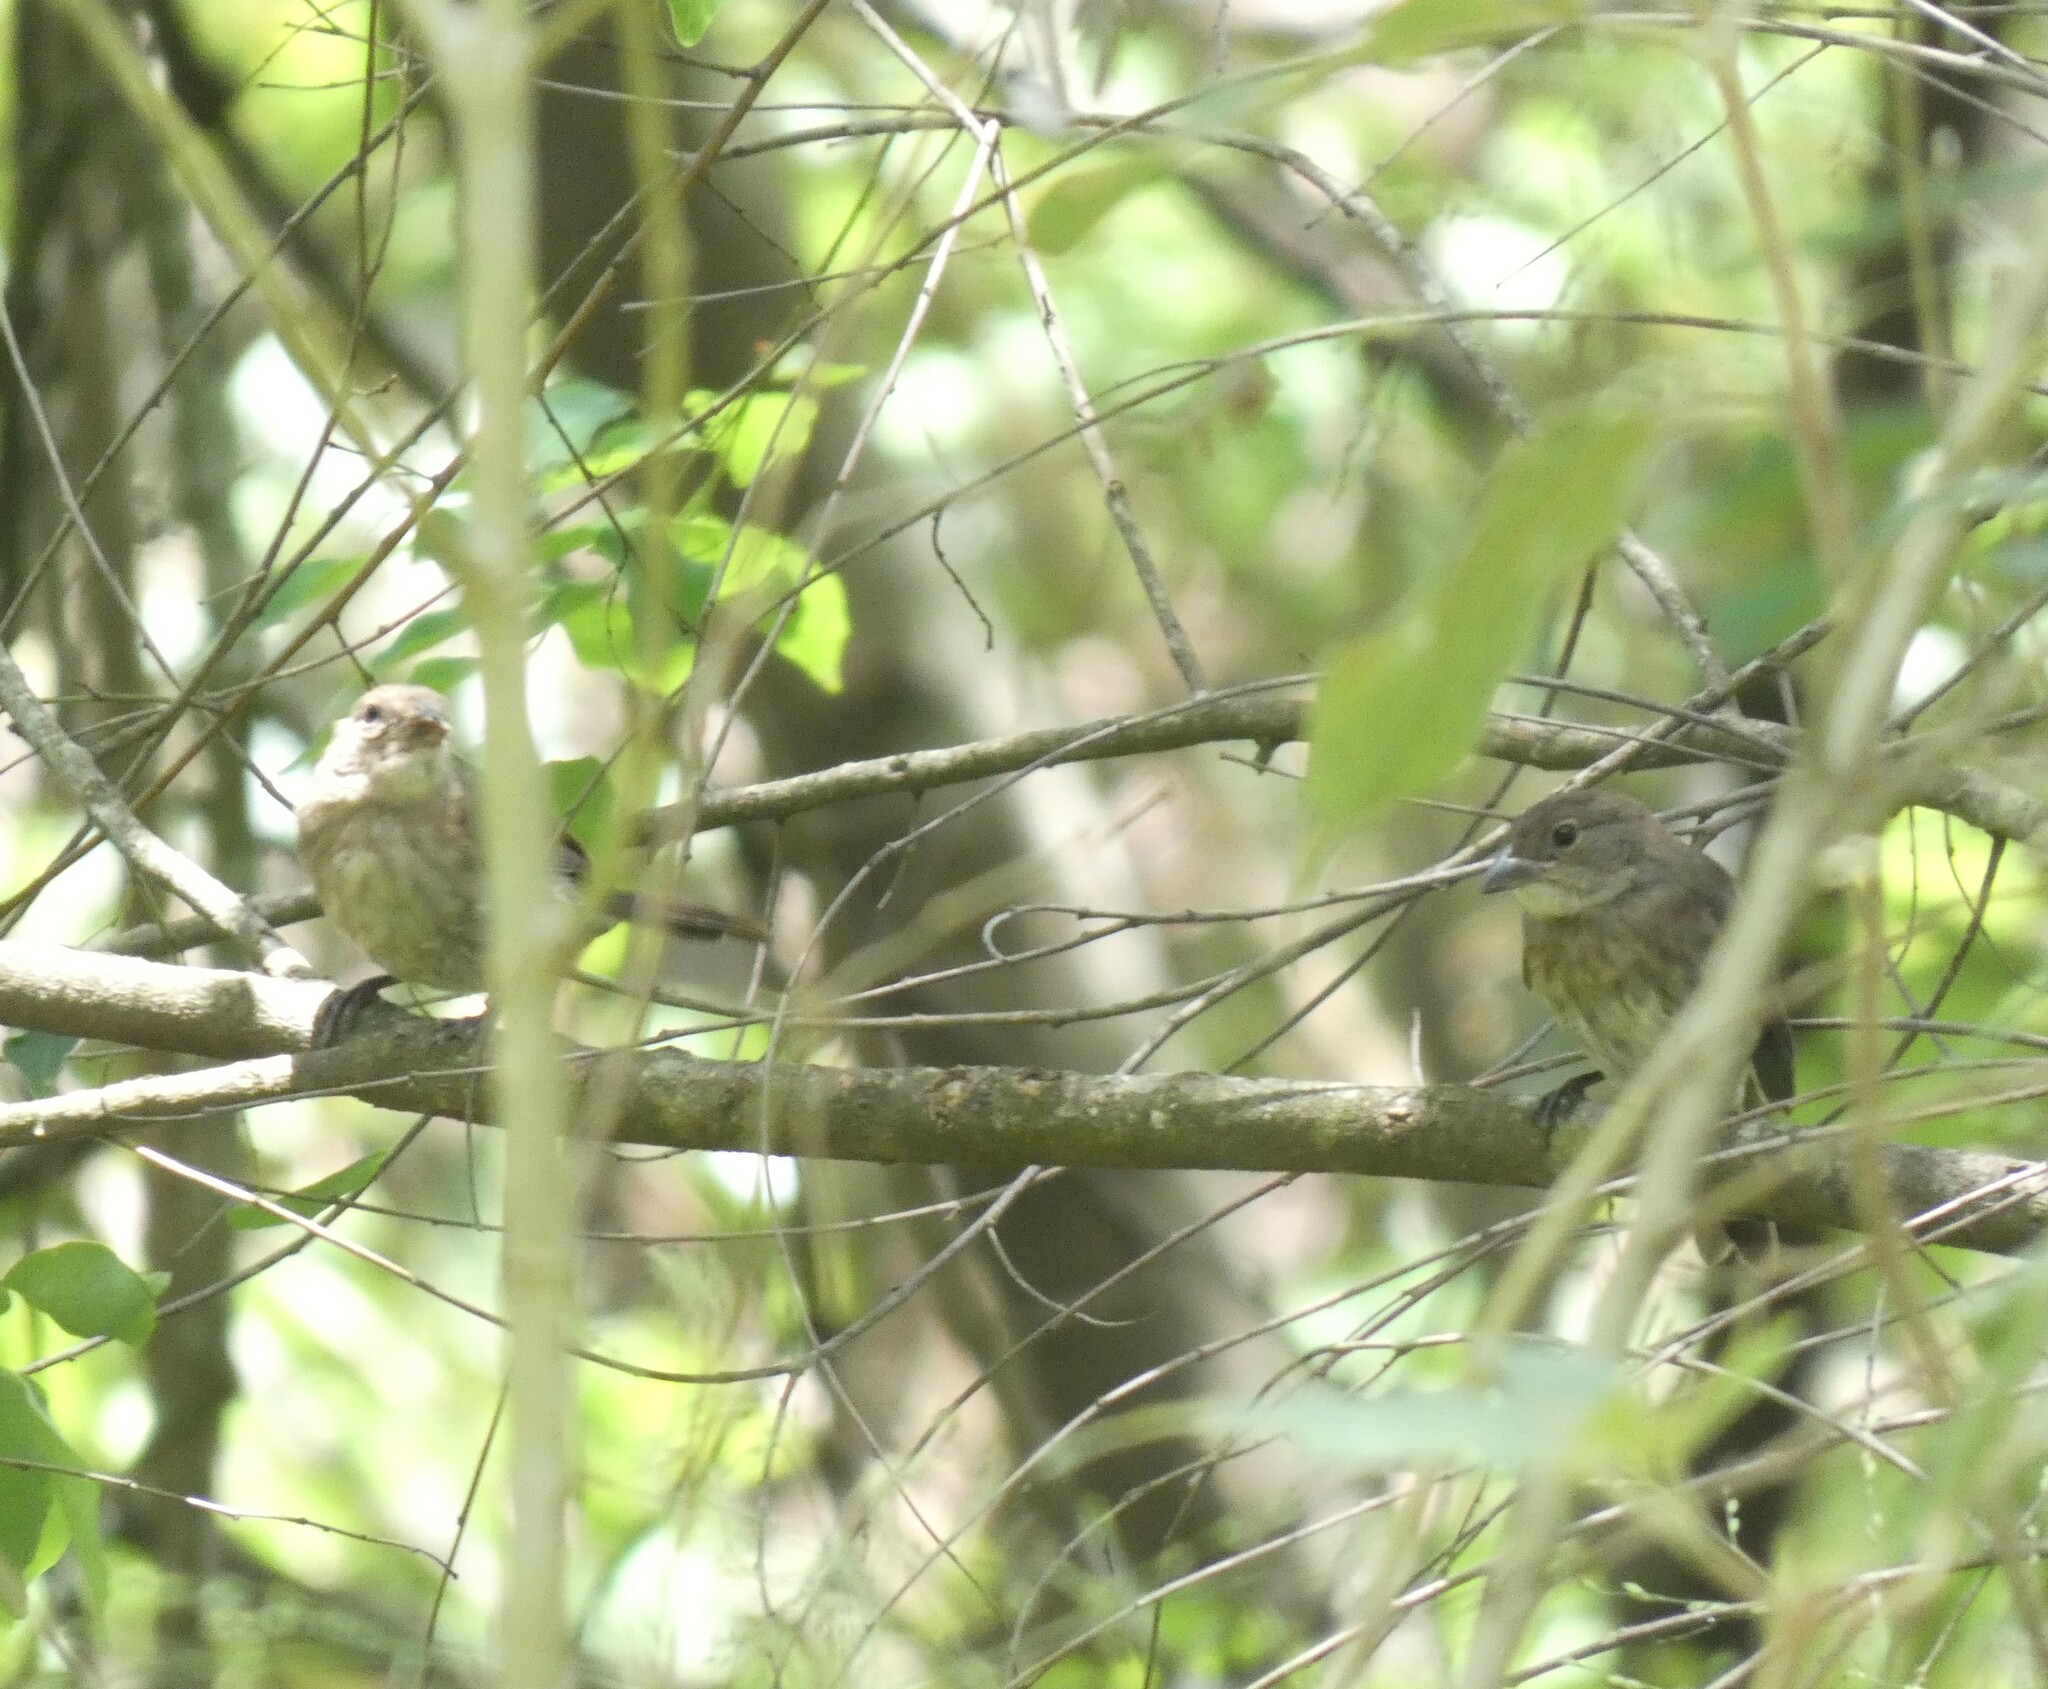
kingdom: Animalia
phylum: Chordata
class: Aves
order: Passeriformes
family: Thraupidae
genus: Volatinia
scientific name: Volatinia jacarina
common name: Blue-black grassquit
